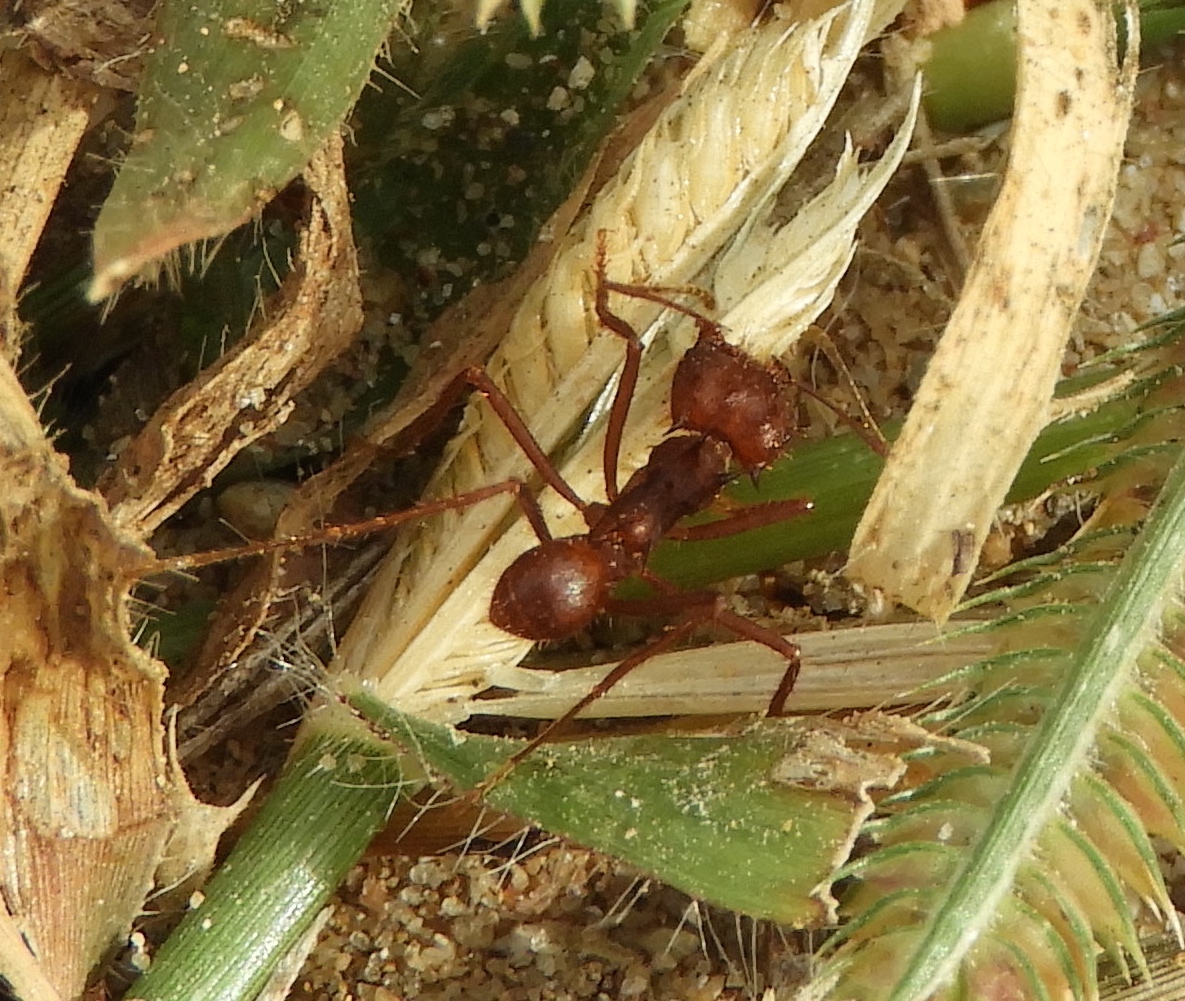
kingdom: Animalia
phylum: Arthropoda
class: Insecta
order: Hymenoptera
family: Formicidae
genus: Atta
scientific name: Atta mexicana
